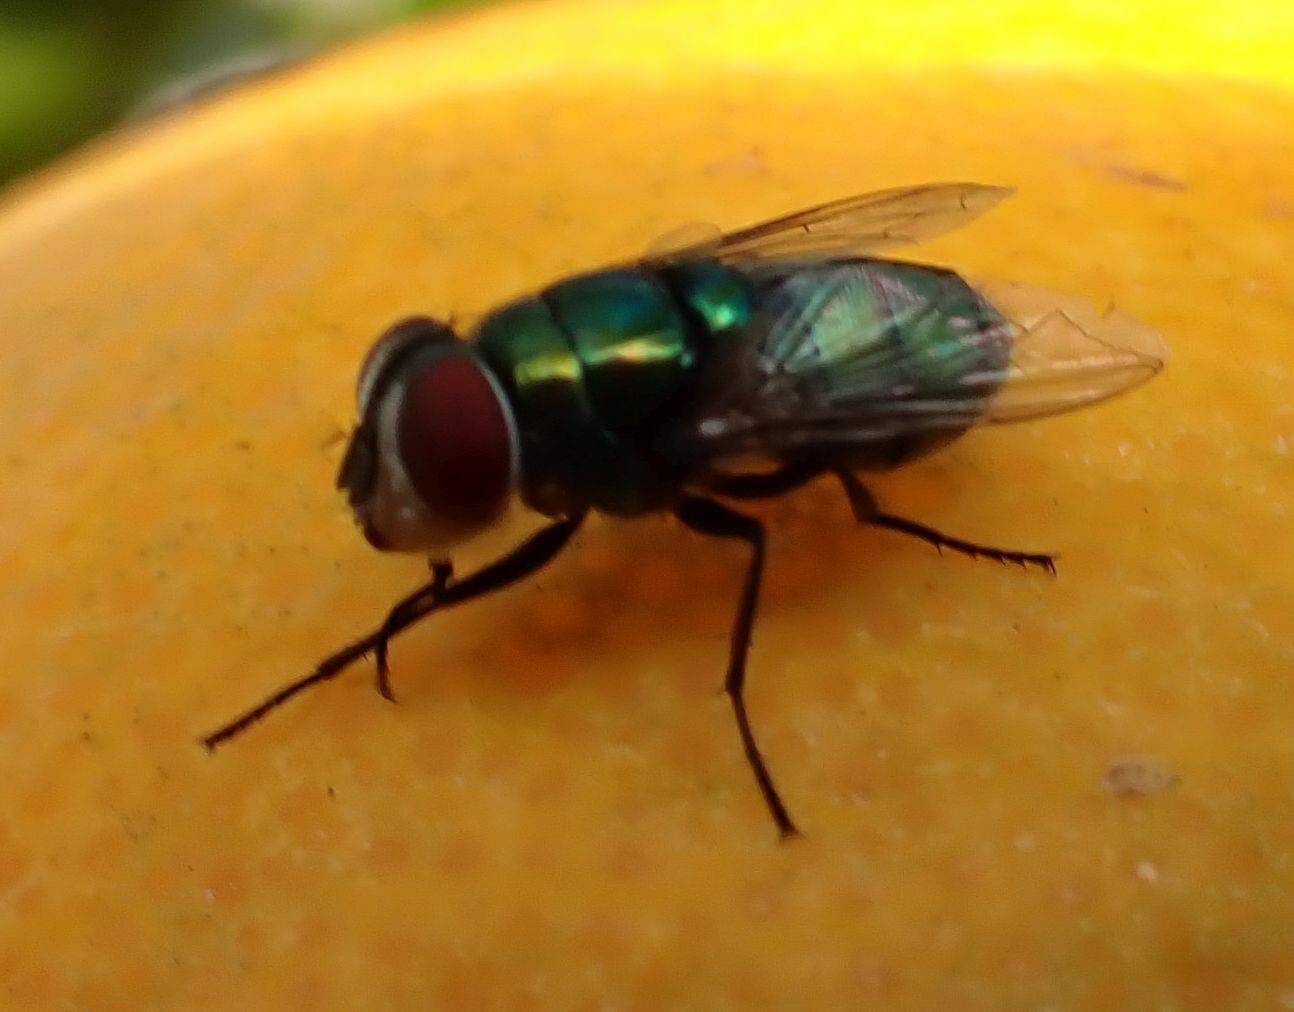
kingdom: Animalia
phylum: Arthropoda
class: Insecta
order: Diptera
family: Calliphoridae
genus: Chrysomya
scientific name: Chrysomya albiceps
